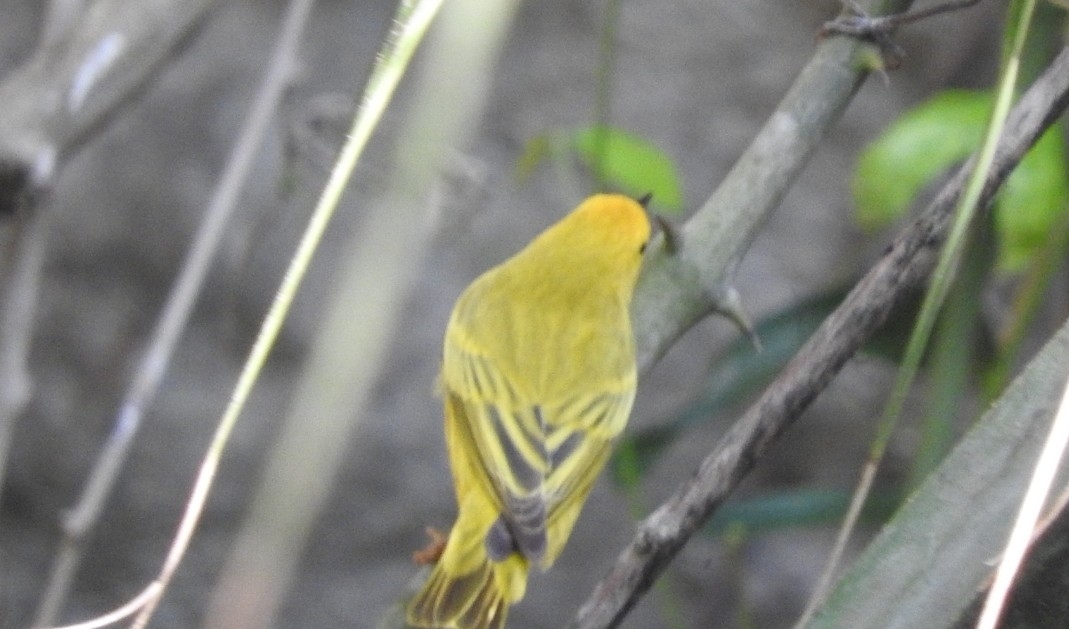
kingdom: Animalia
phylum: Chordata
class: Aves
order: Passeriformes
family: Parulidae
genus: Setophaga
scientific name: Setophaga petechia
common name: Yellow warbler
